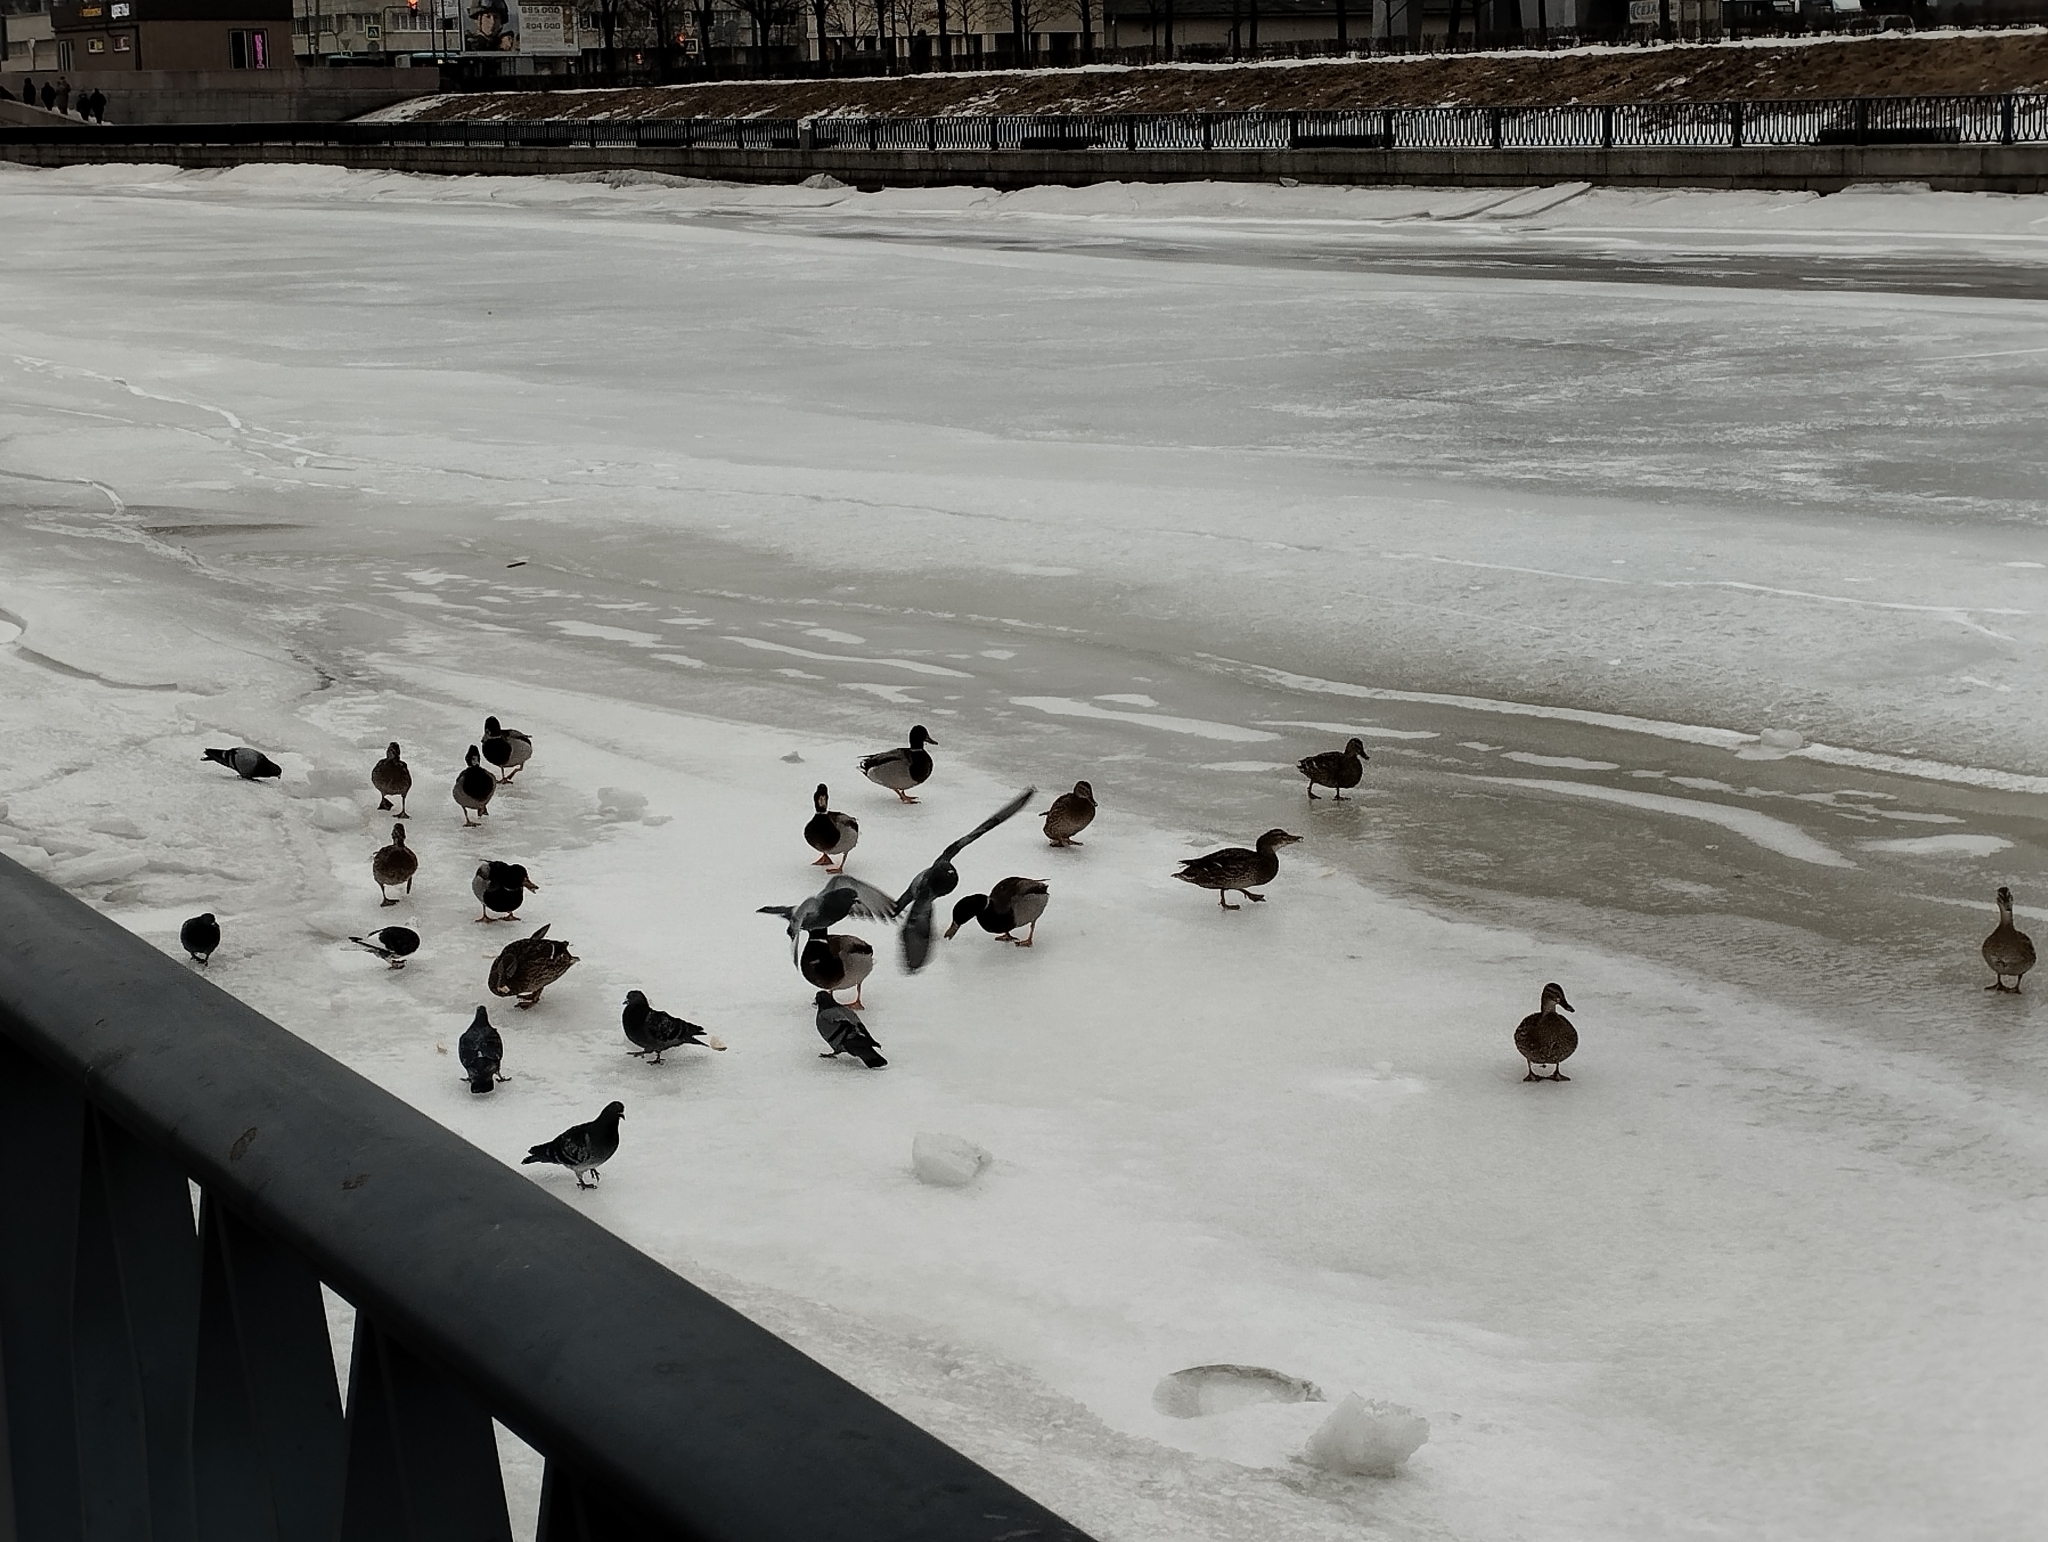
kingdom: Animalia
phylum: Chordata
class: Aves
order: Anseriformes
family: Anatidae
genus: Anas
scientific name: Anas platyrhynchos
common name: Mallard
